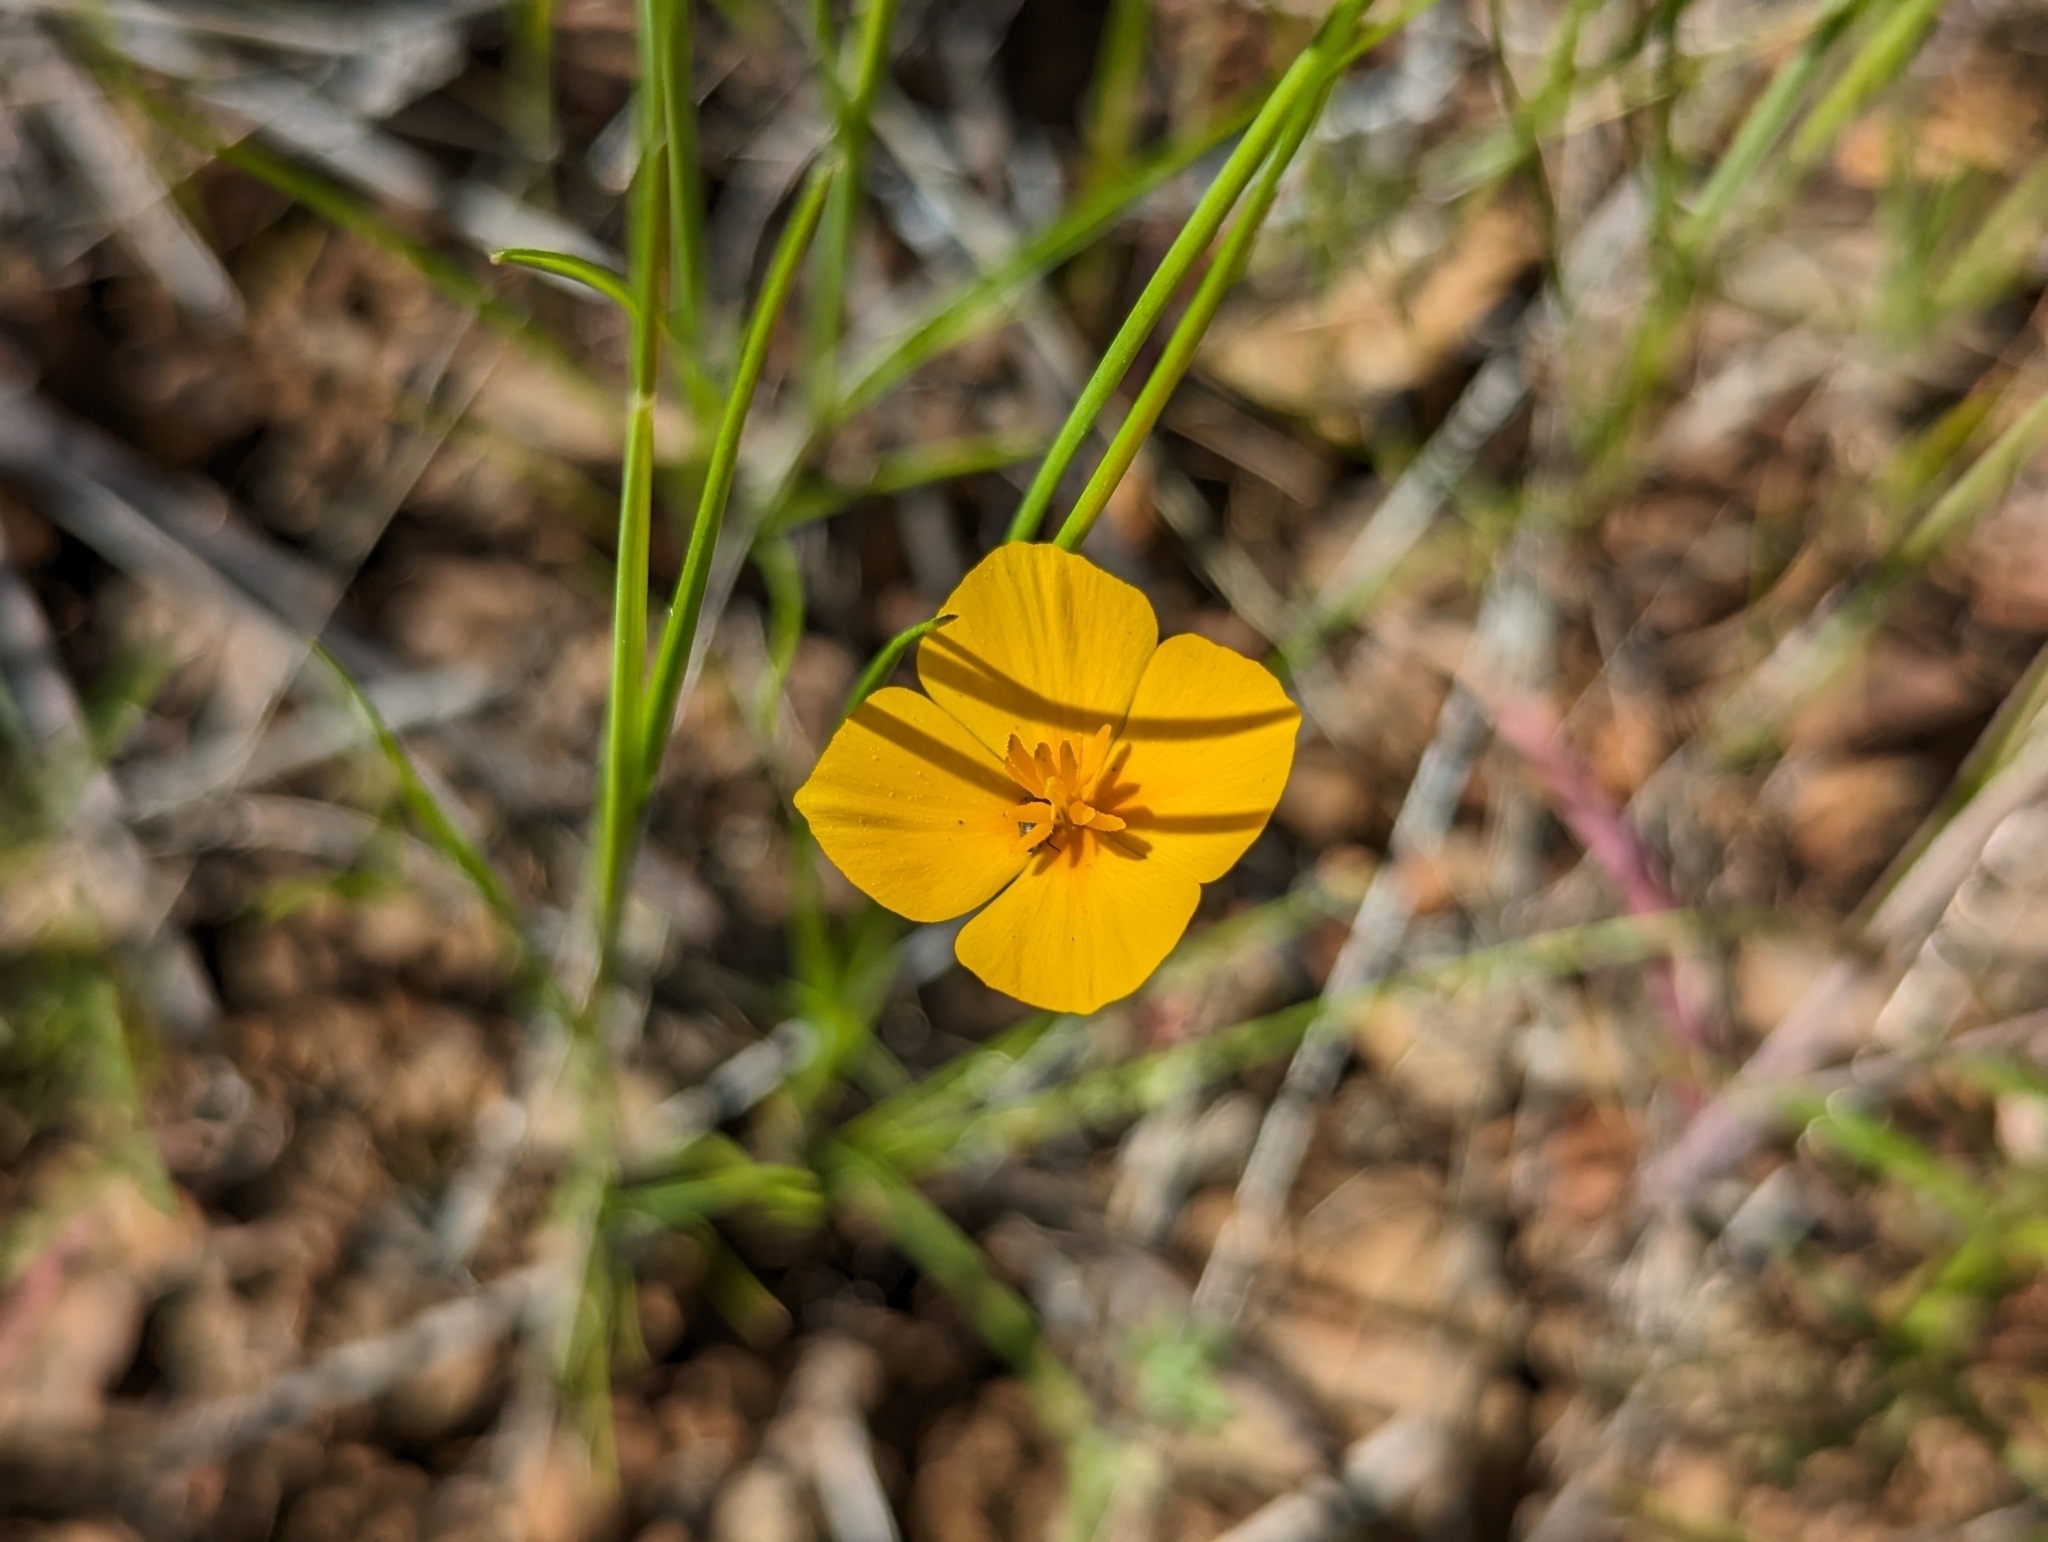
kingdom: Plantae
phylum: Tracheophyta
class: Magnoliopsida
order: Ranunculales
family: Papaveraceae
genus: Eschscholzia
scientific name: Eschscholzia hypecoides
